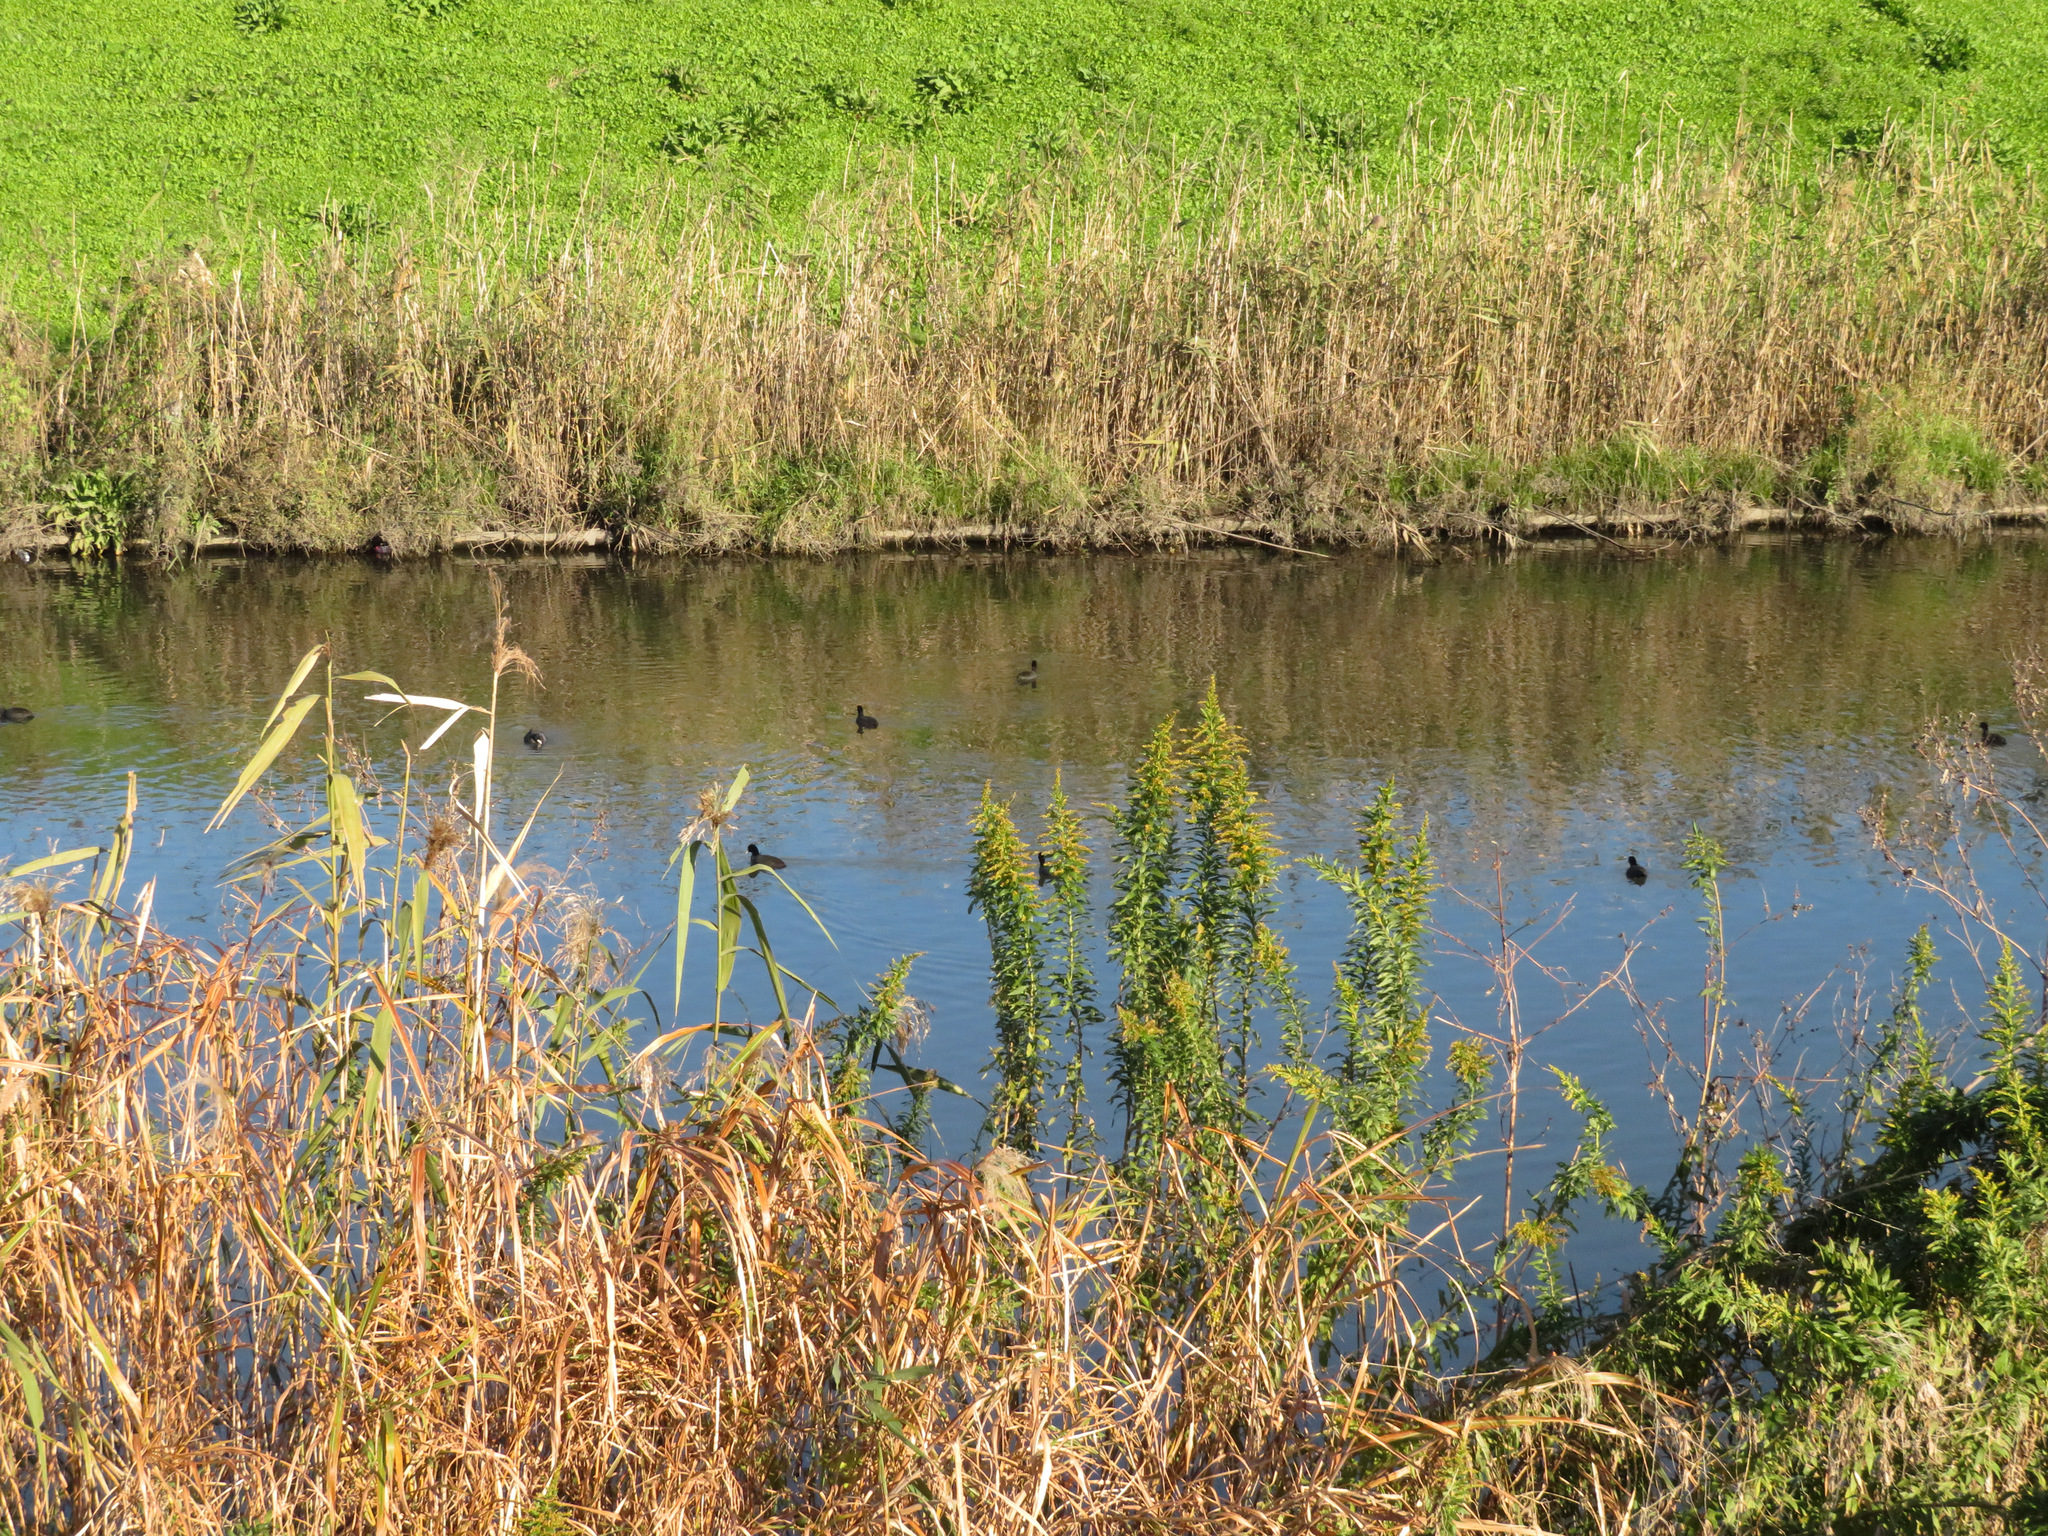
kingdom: Animalia
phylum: Chordata
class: Aves
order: Gruiformes
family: Rallidae
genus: Fulica
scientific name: Fulica atra
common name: Eurasian coot
